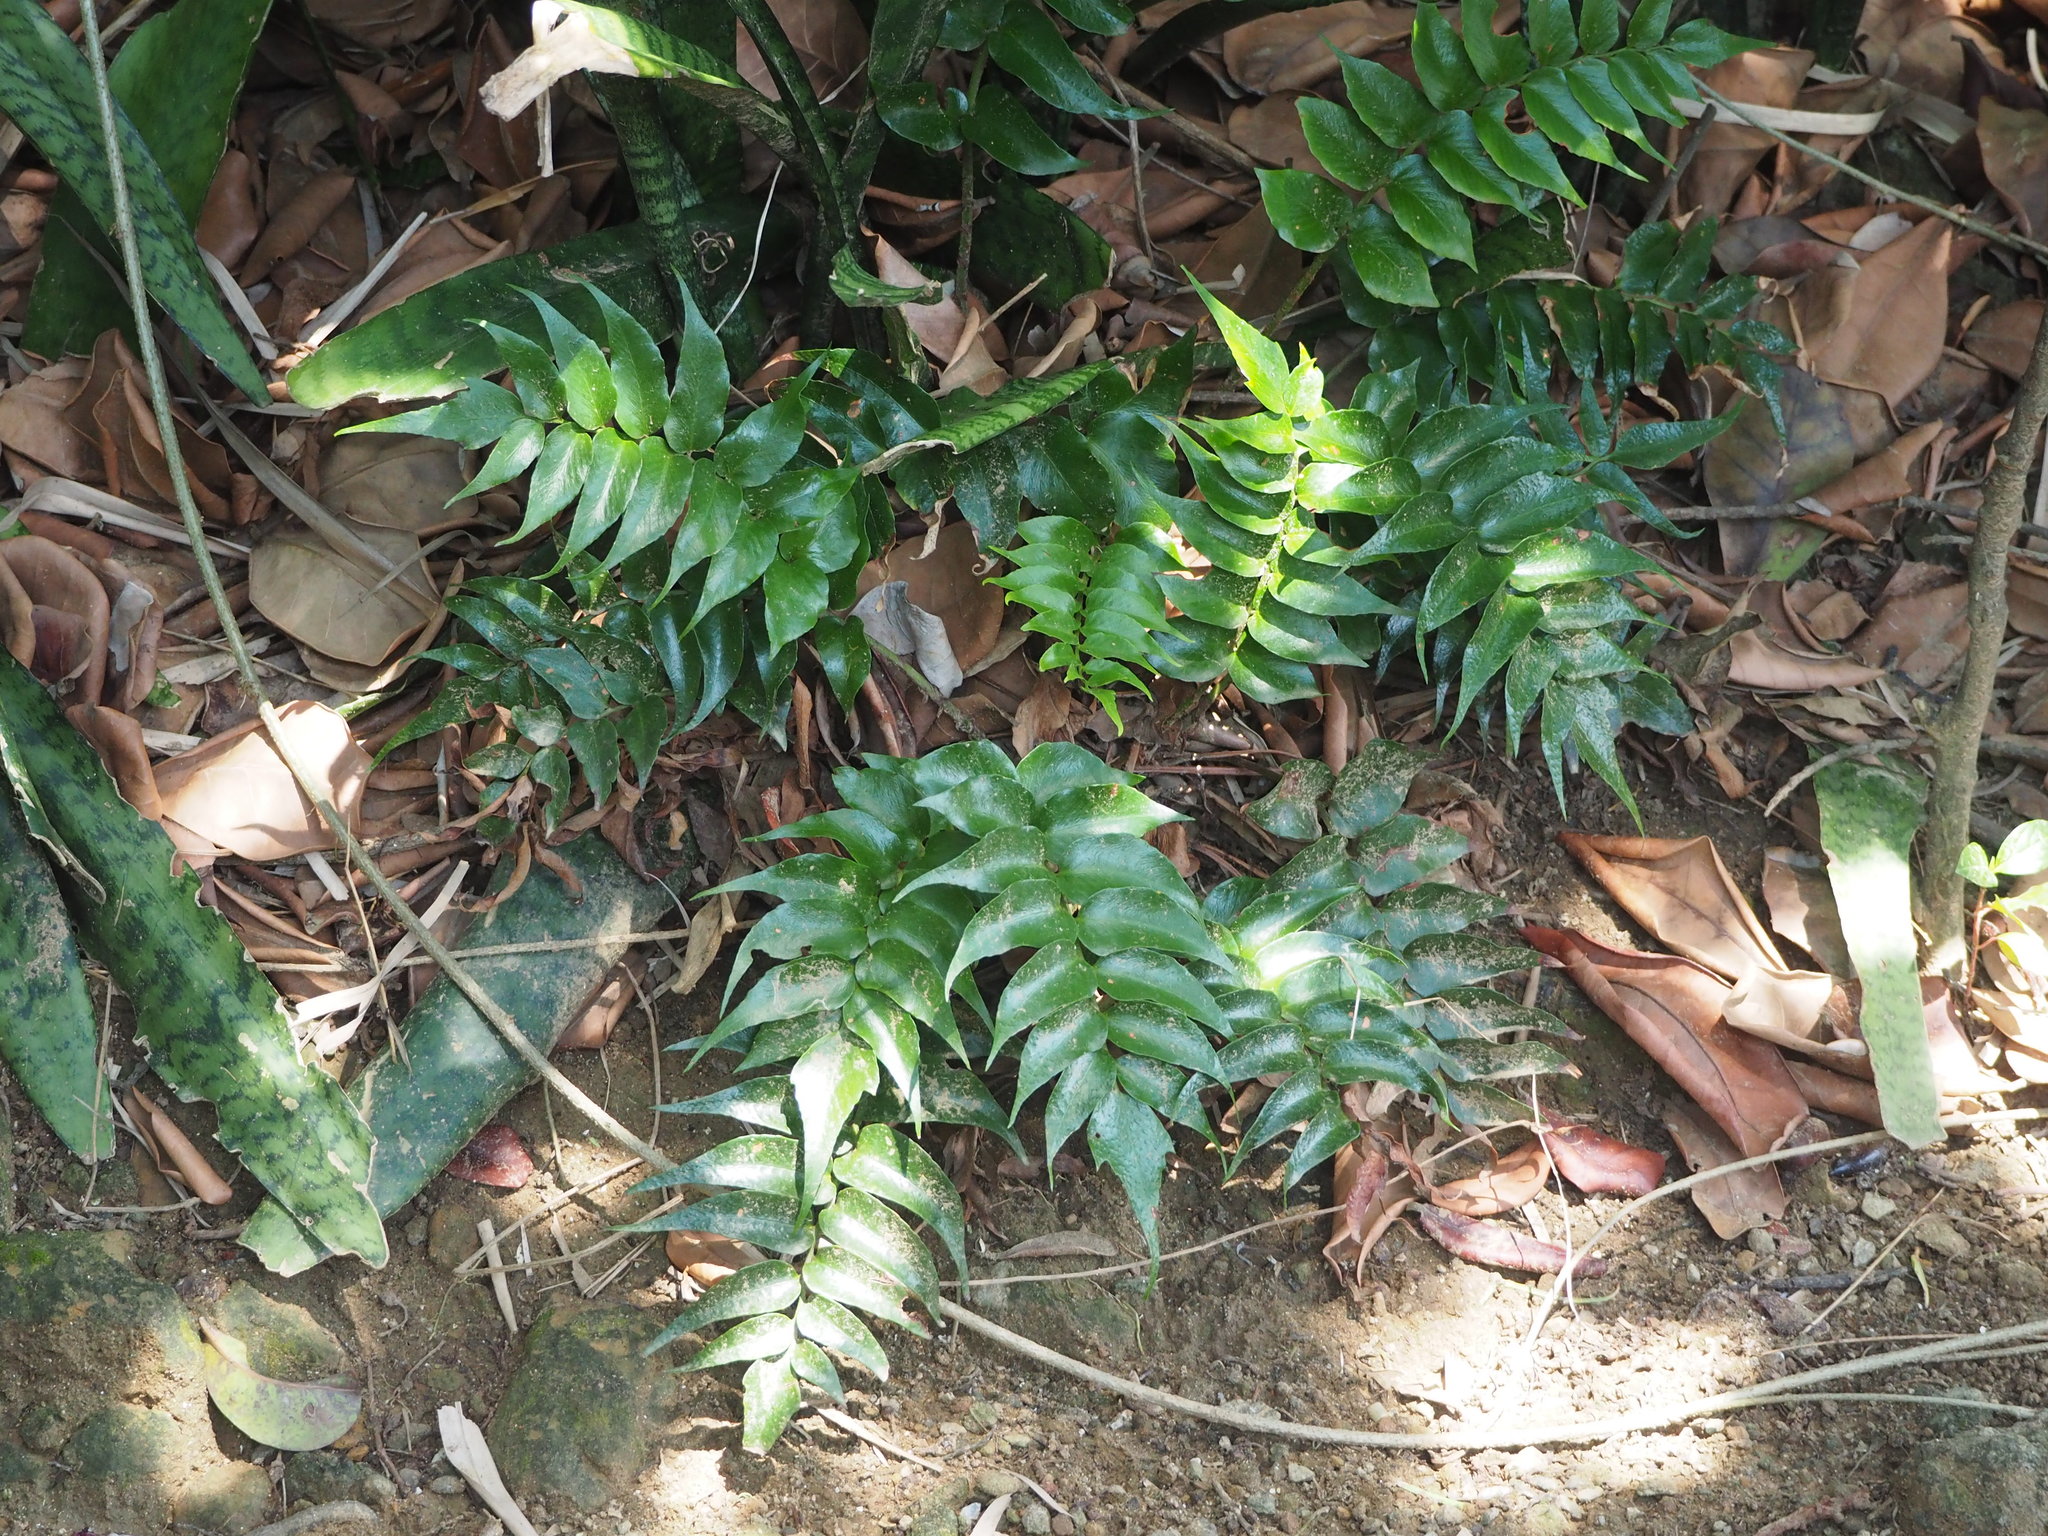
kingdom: Plantae
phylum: Tracheophyta
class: Polypodiopsida
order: Polypodiales
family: Dryopteridaceae
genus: Cyrtomium
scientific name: Cyrtomium falcatum
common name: House holly-fern
